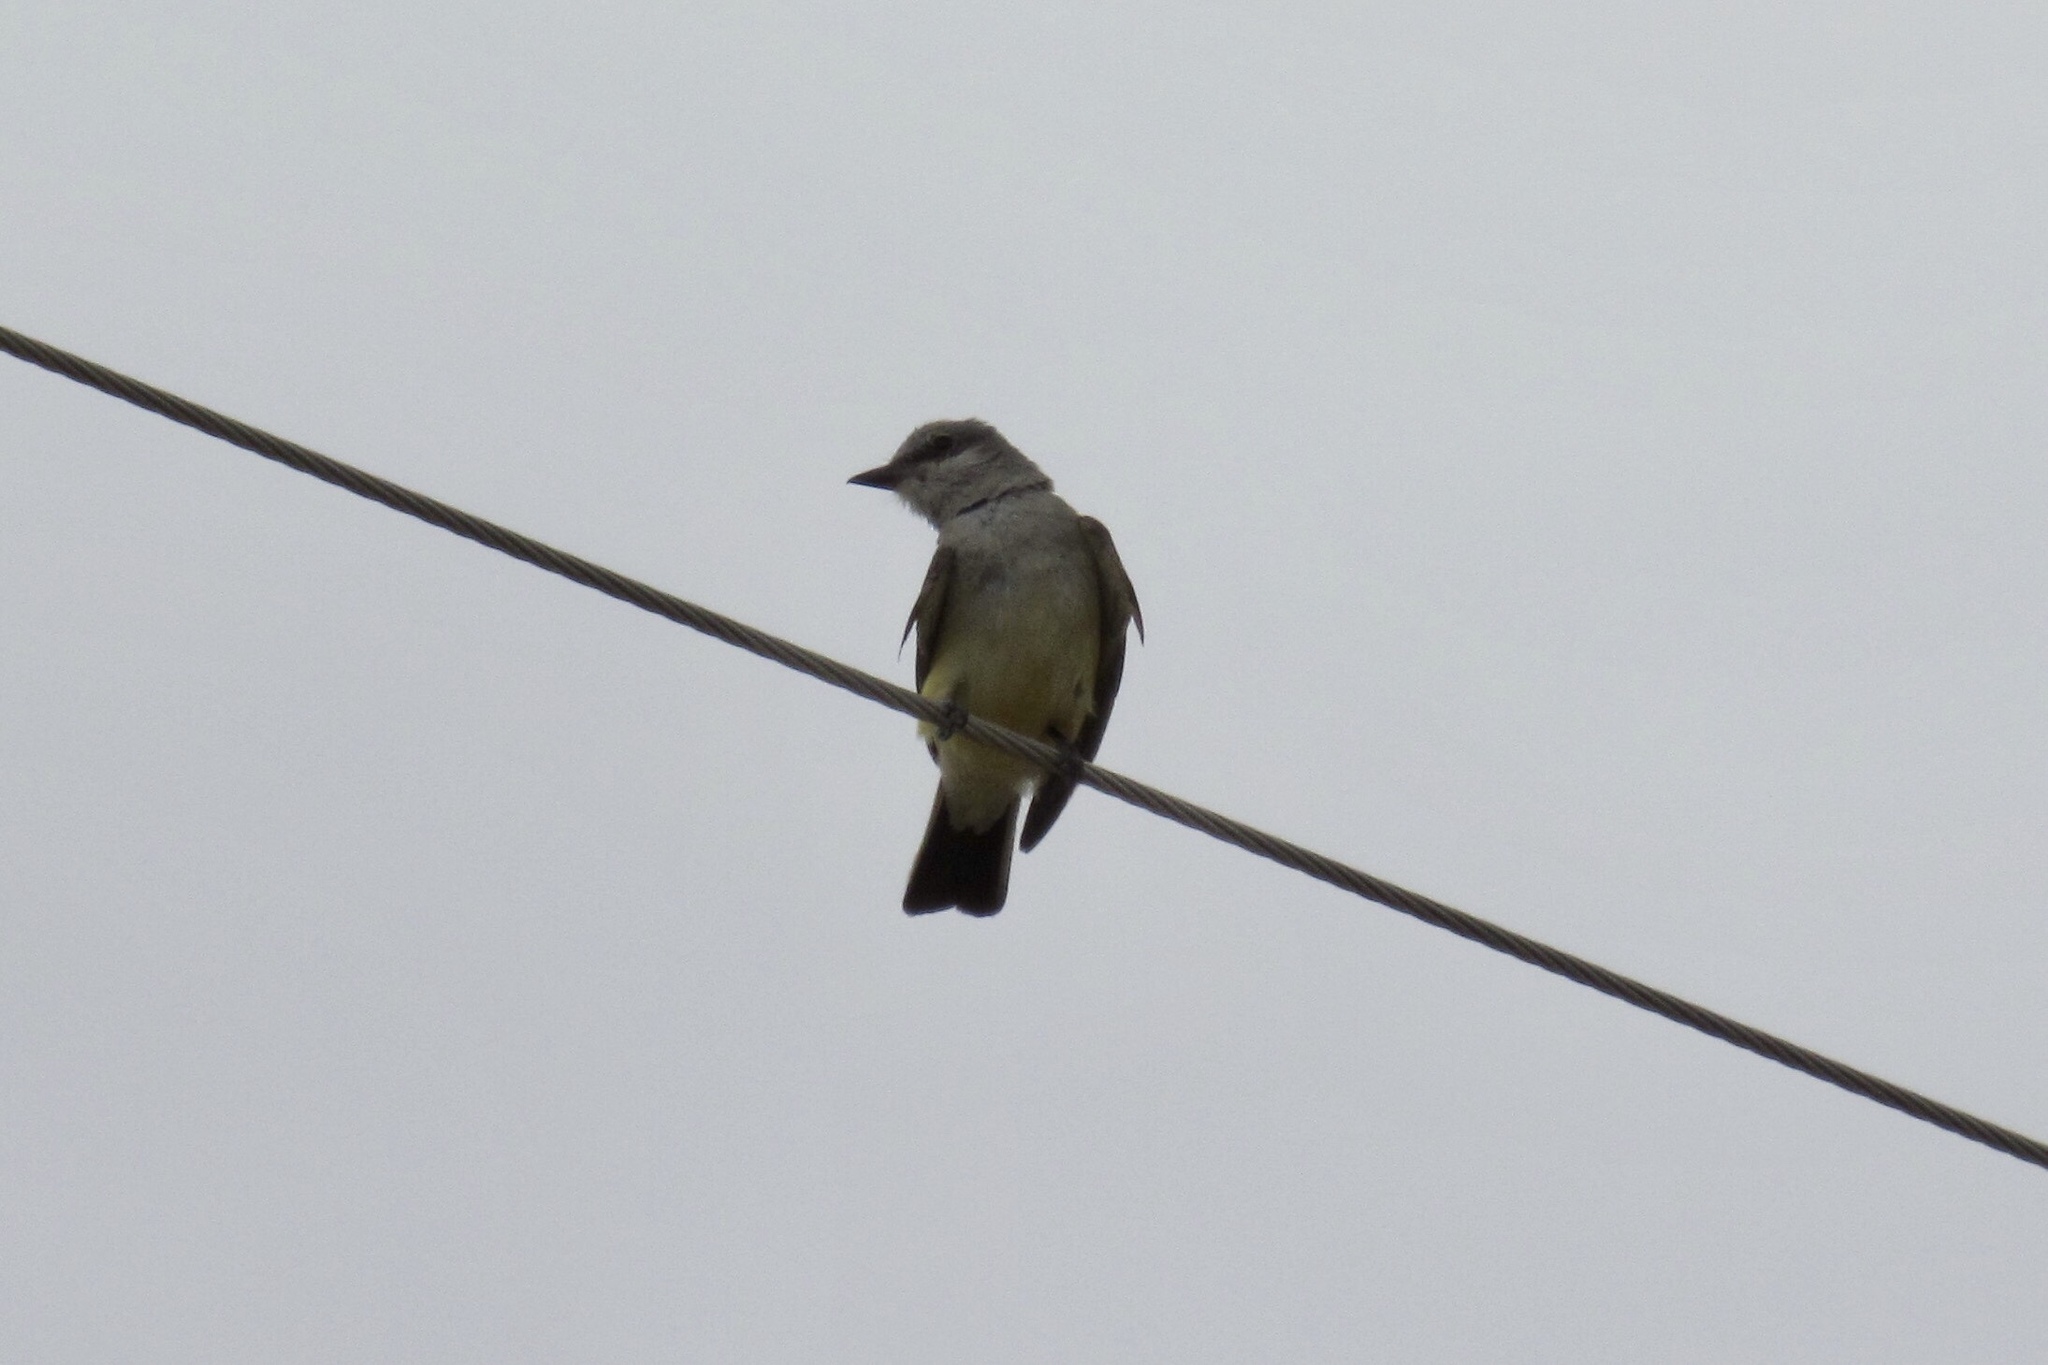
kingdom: Animalia
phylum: Chordata
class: Aves
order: Passeriformes
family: Tyrannidae
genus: Tyrannus
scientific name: Tyrannus verticalis
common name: Western kingbird
